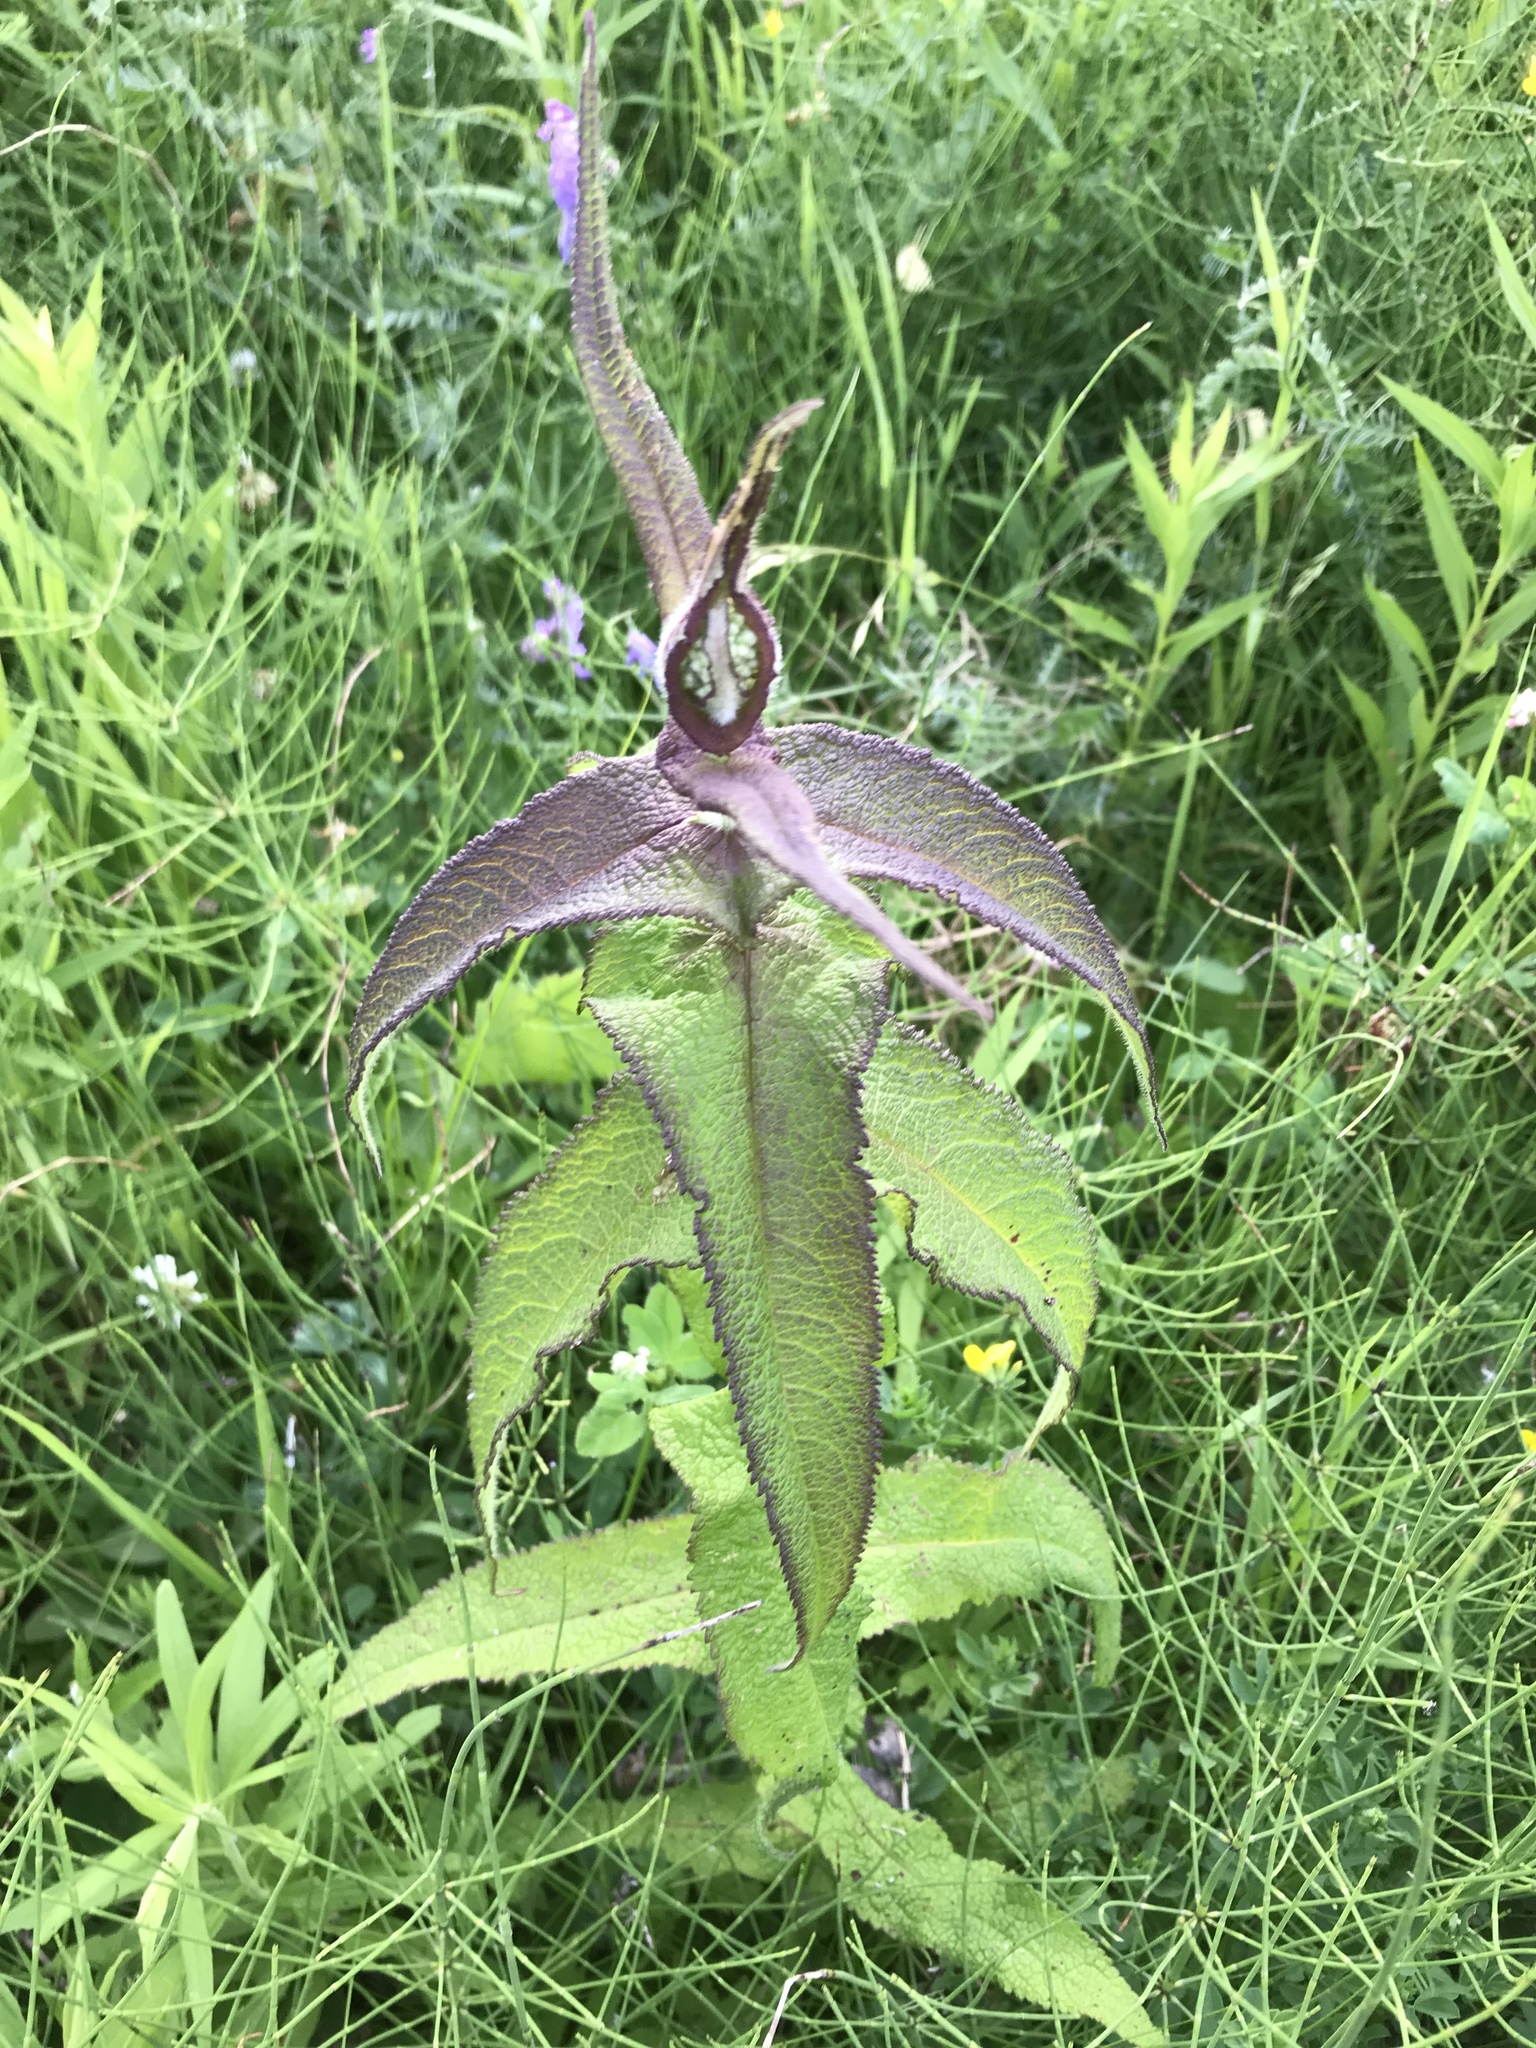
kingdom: Plantae
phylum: Tracheophyta
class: Magnoliopsida
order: Asterales
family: Asteraceae
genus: Eupatorium
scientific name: Eupatorium perfoliatum
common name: Boneset
